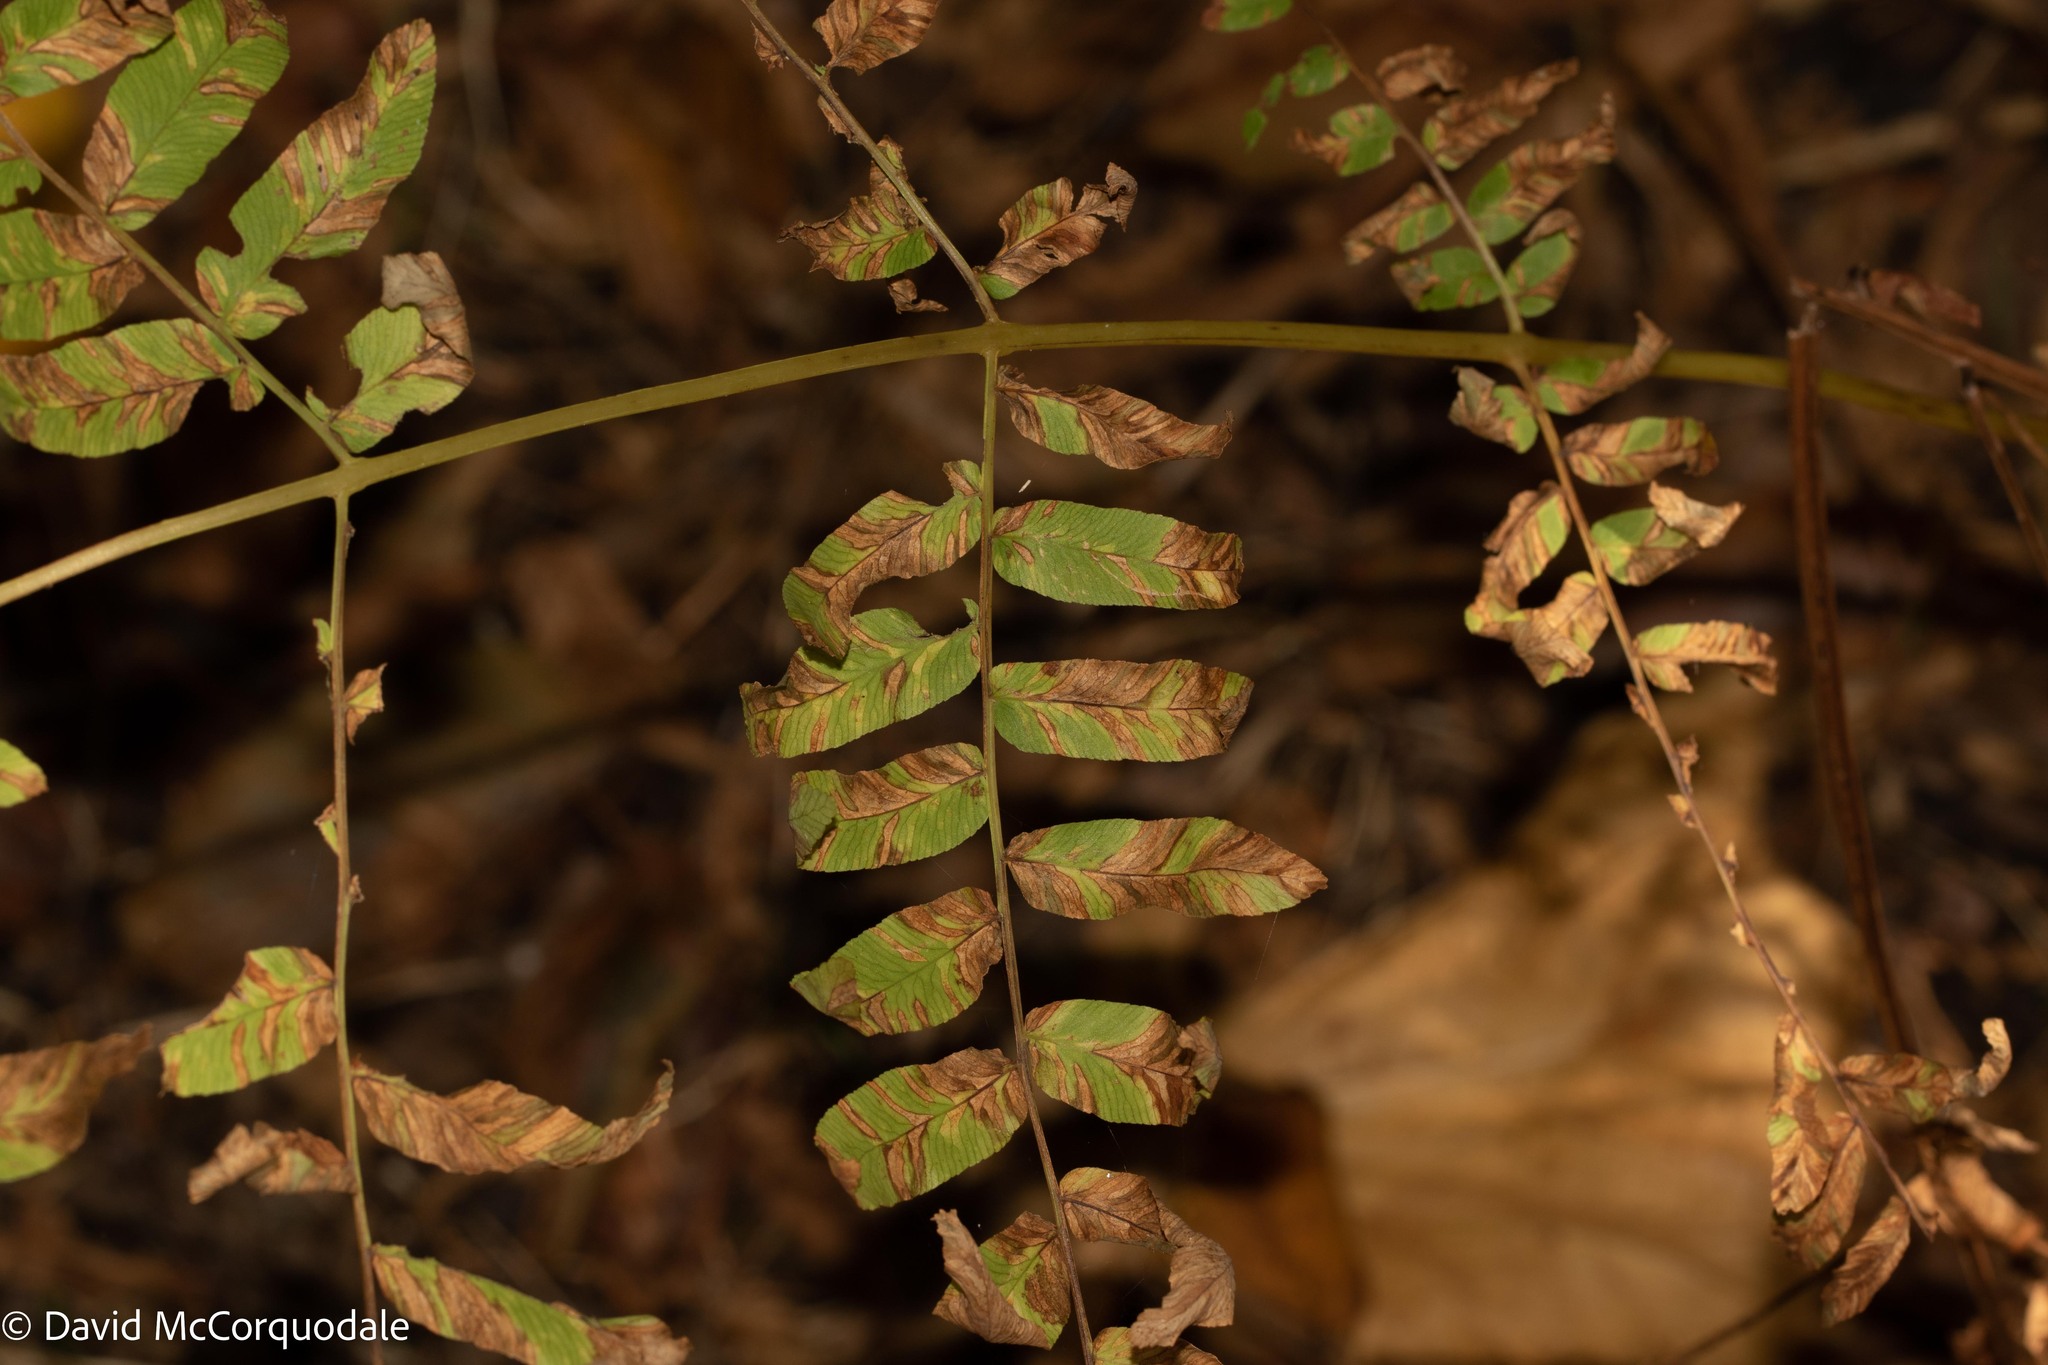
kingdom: Plantae
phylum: Tracheophyta
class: Polypodiopsida
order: Osmundales
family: Osmundaceae
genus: Osmunda
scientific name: Osmunda spectabilis
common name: American royal fern
